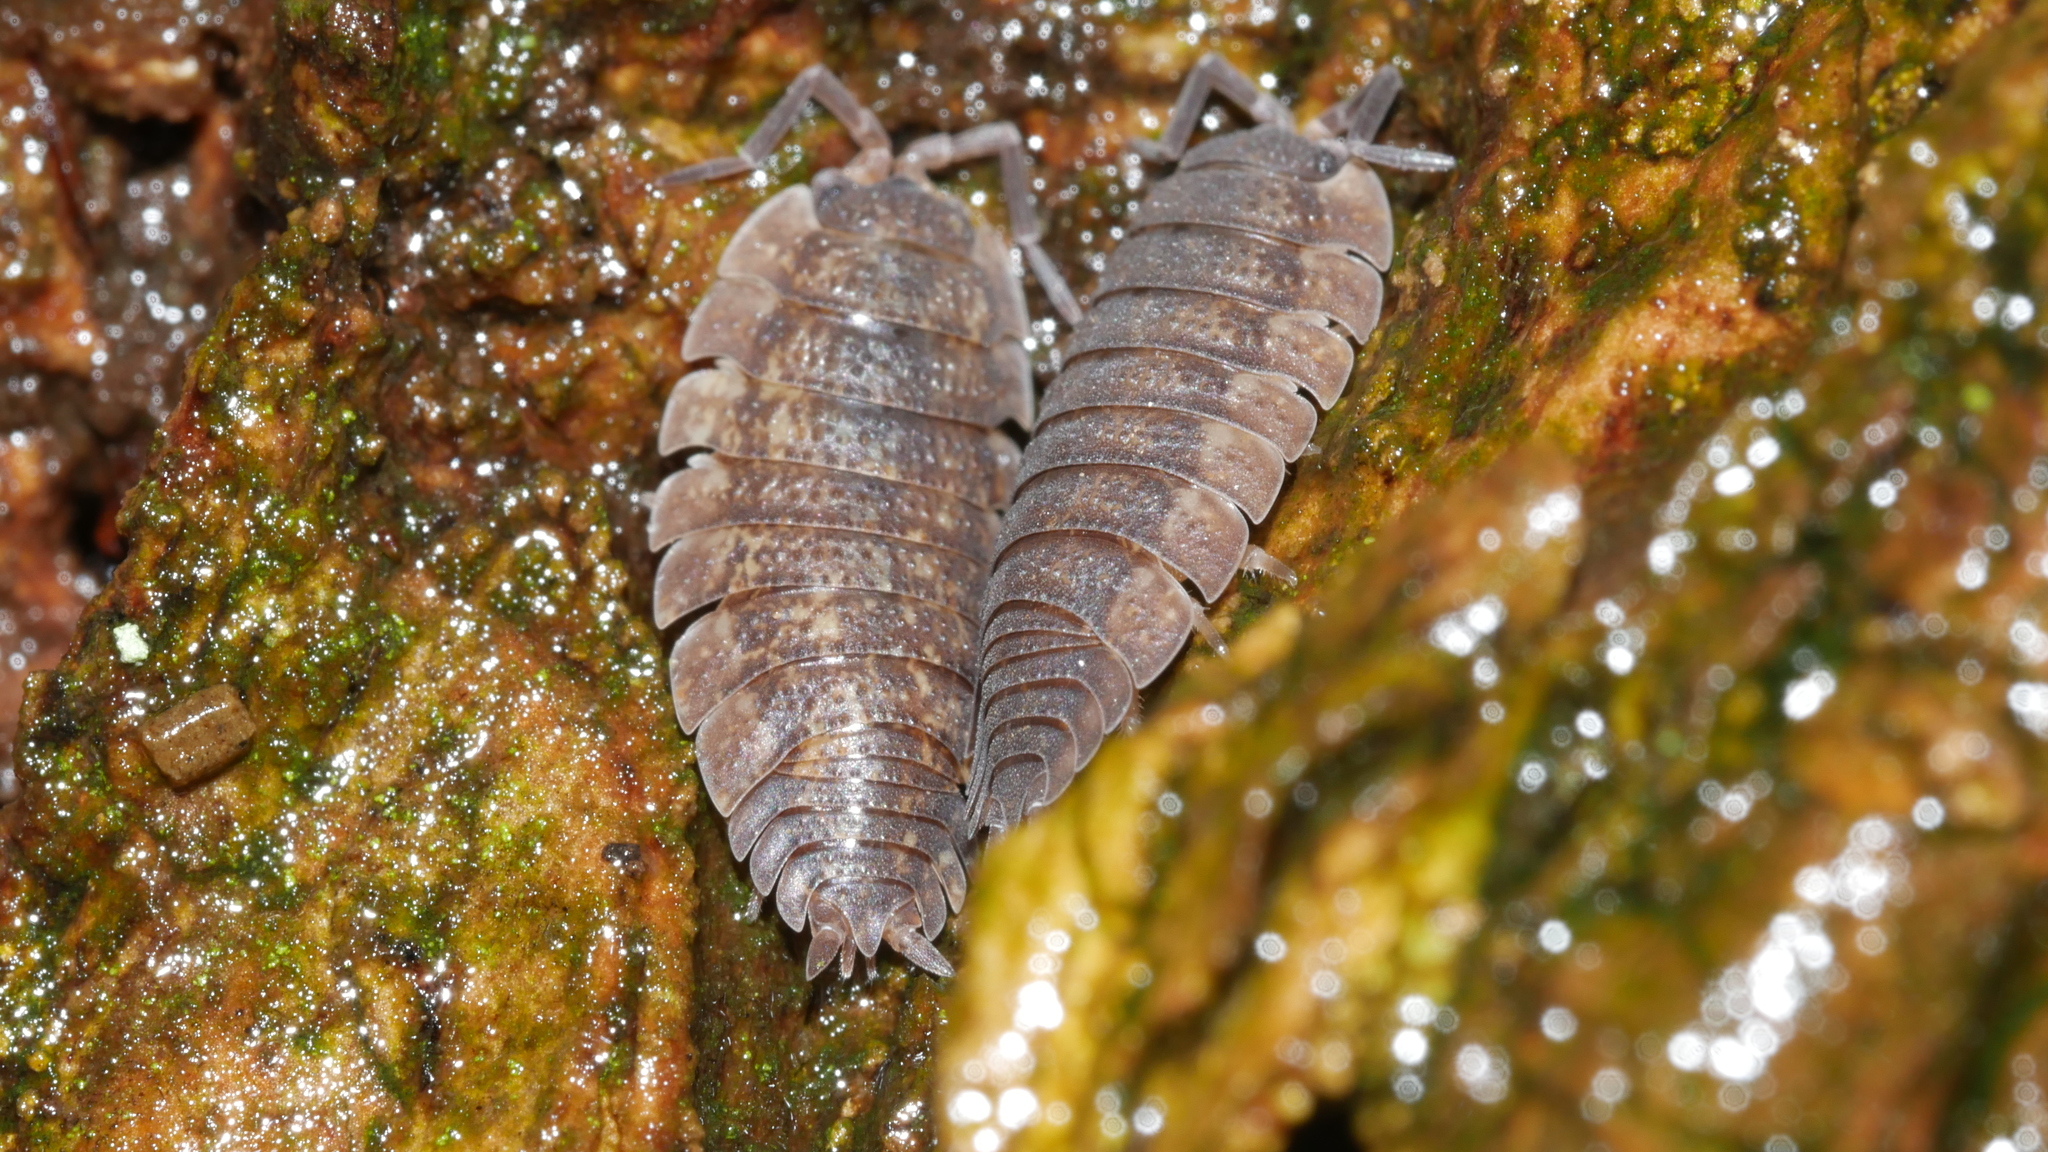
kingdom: Animalia
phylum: Arthropoda
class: Malacostraca
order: Isopoda
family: Porcellionidae
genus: Porcellio
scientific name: Porcellio scaber
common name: Common rough woodlouse
